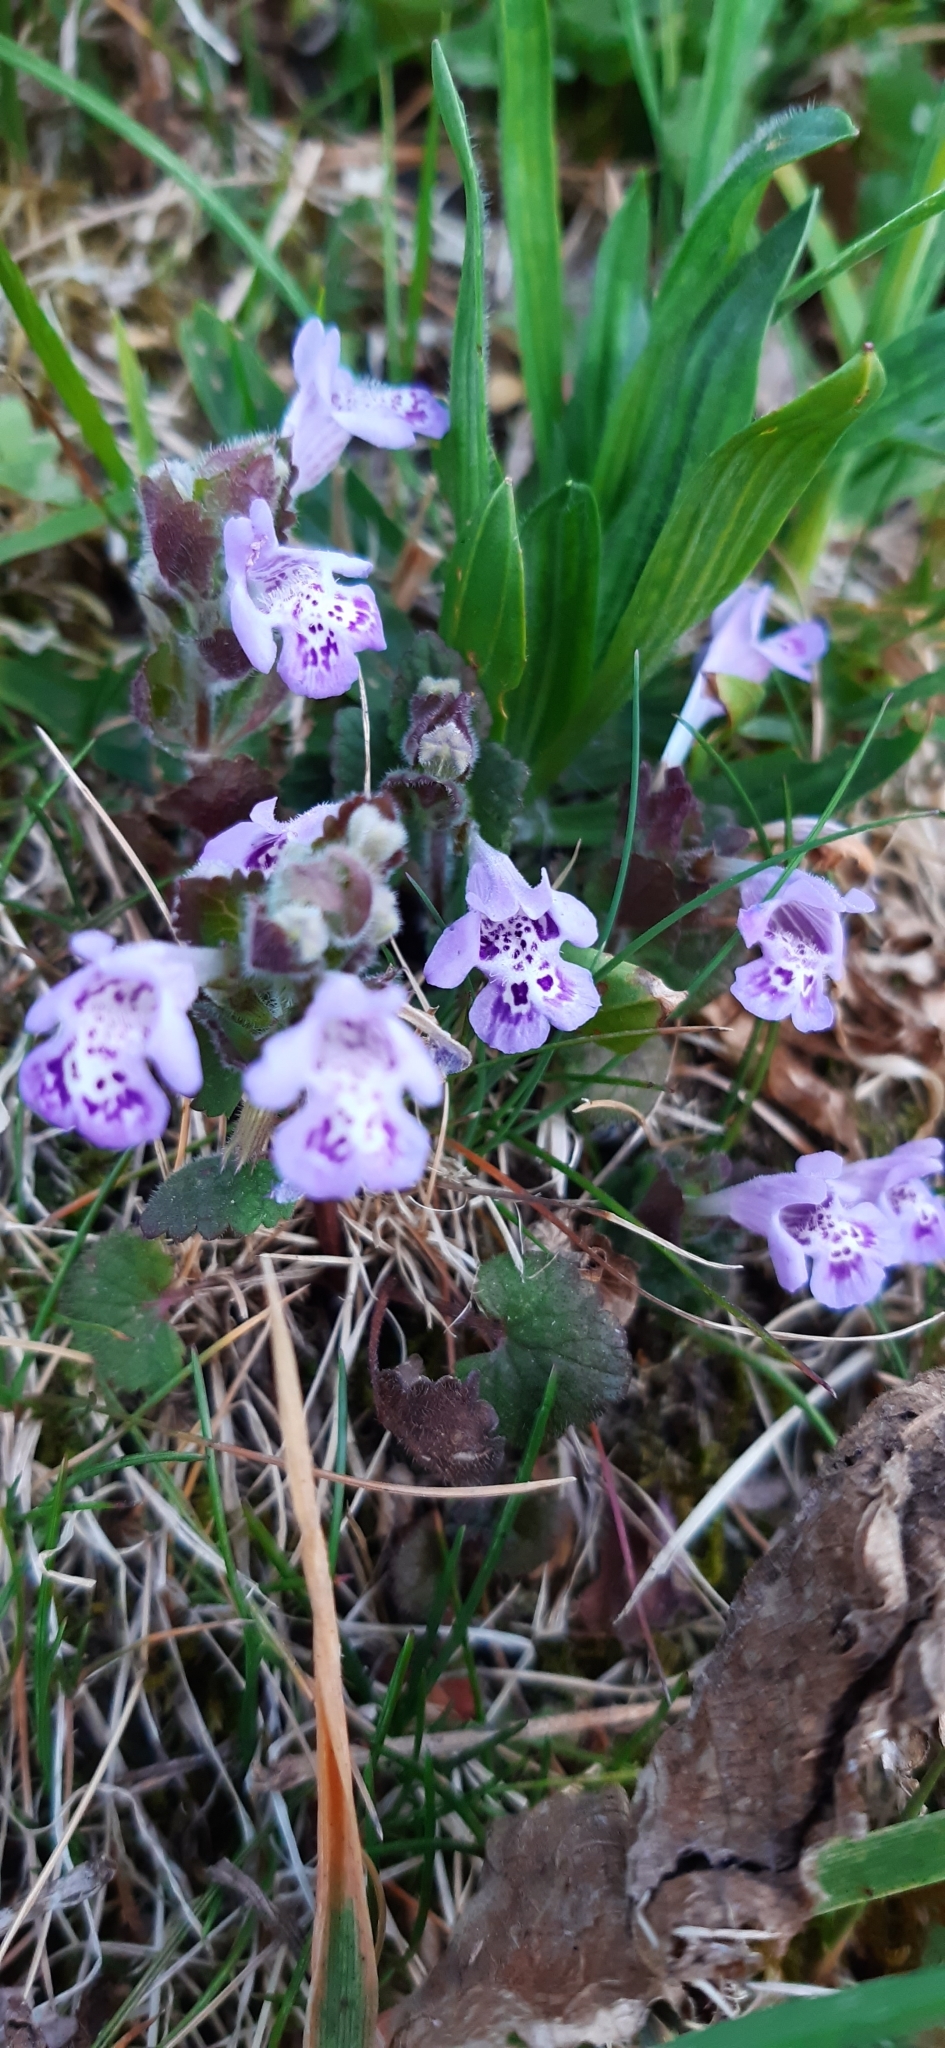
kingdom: Plantae
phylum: Tracheophyta
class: Magnoliopsida
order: Lamiales
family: Lamiaceae
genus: Glechoma
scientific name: Glechoma hederacea
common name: Ground ivy
